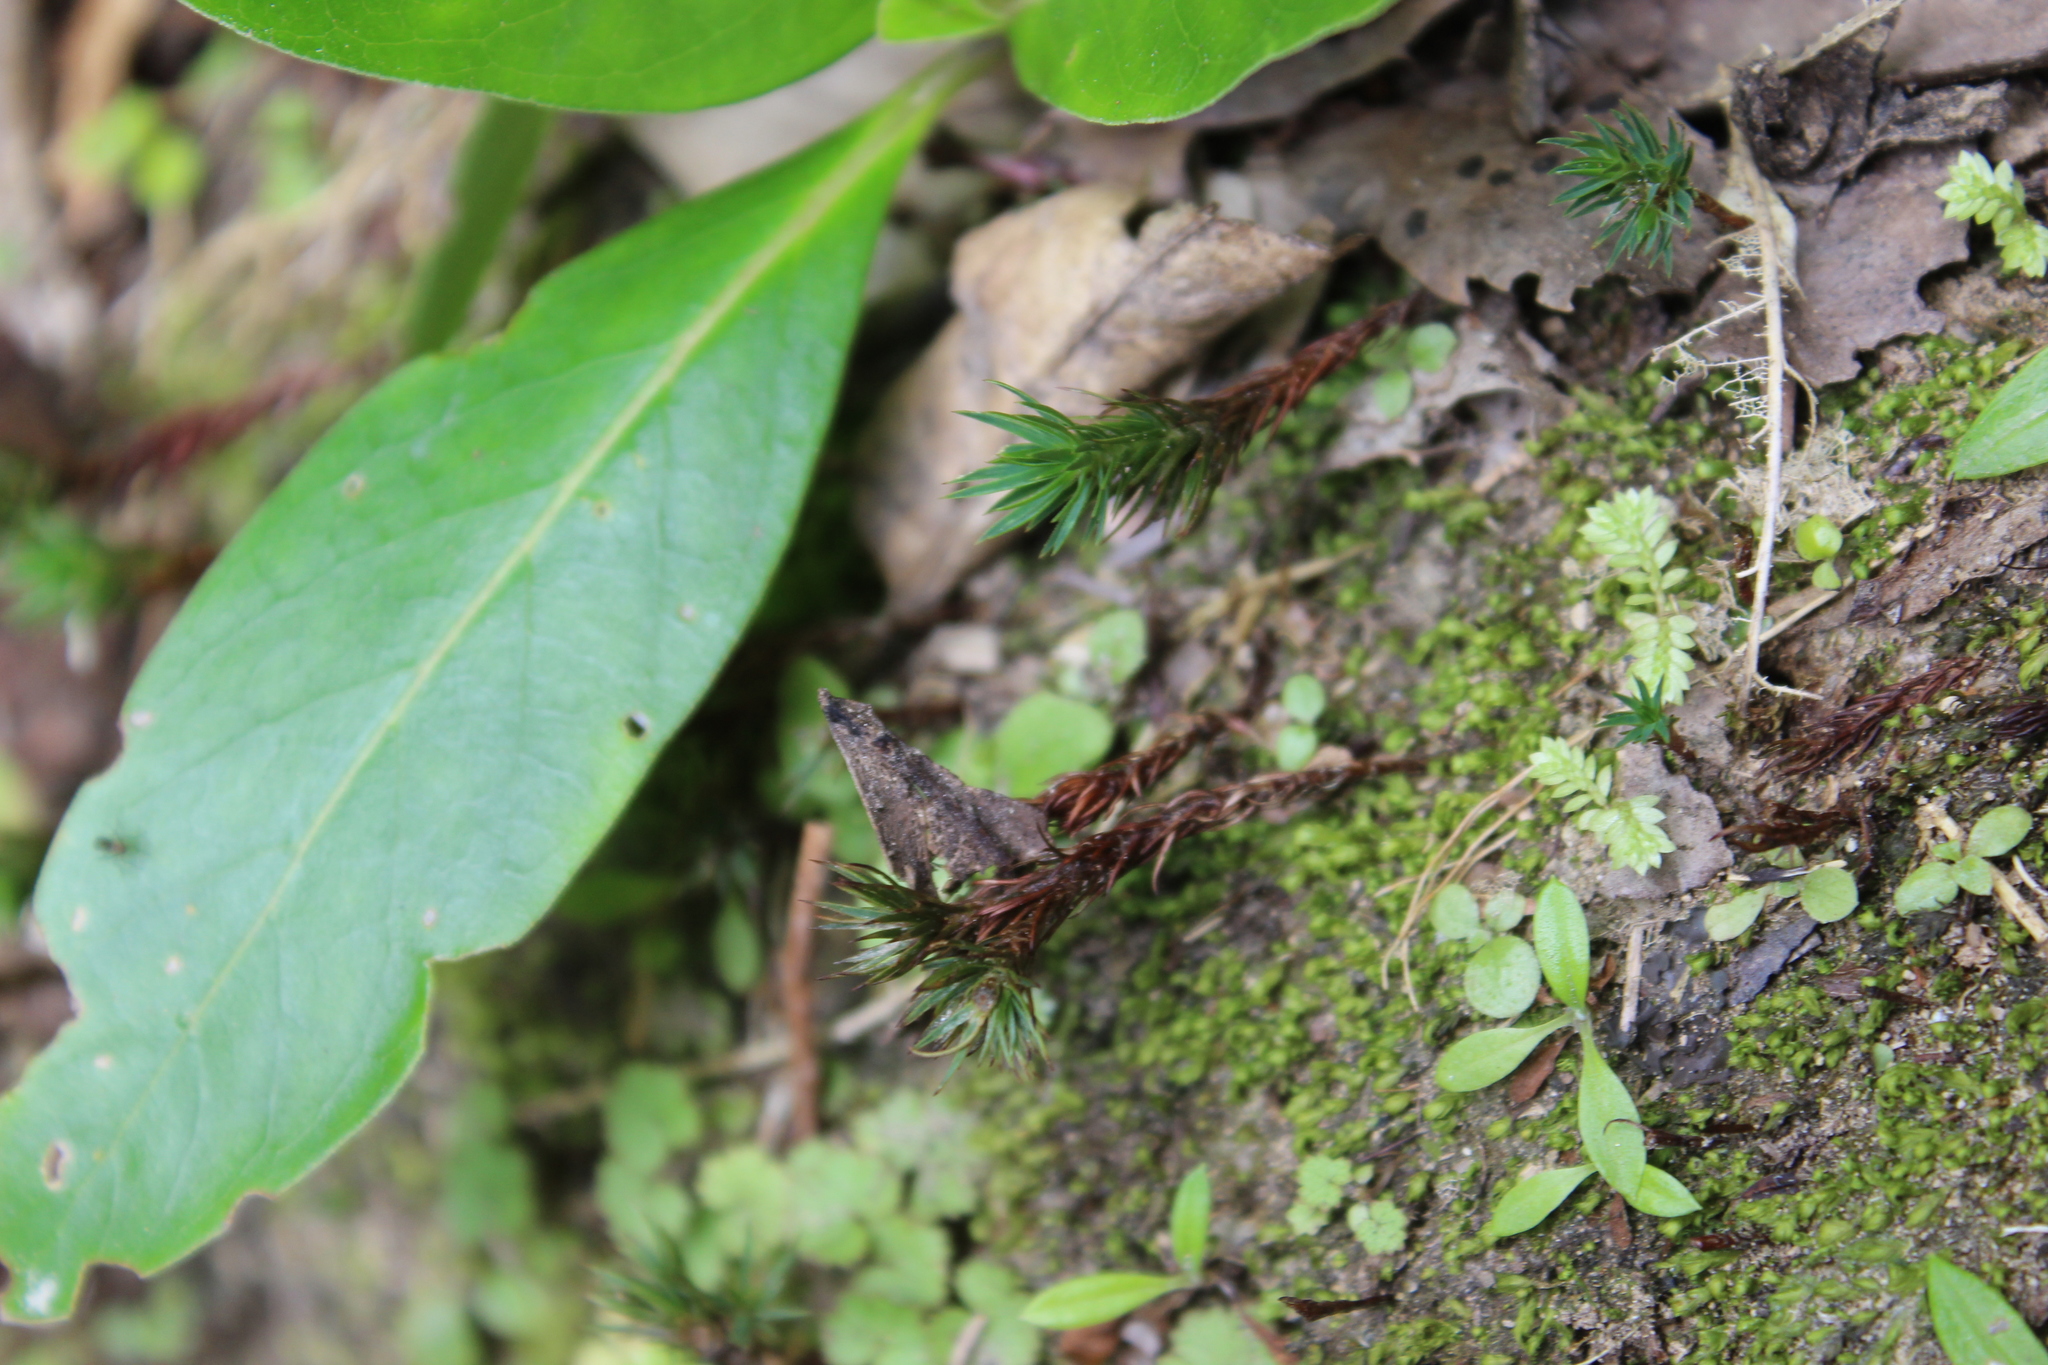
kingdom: Plantae
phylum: Bryophyta
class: Polytrichopsida
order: Polytrichales
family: Polytrichaceae
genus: Polytrichadelphus
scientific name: Polytrichadelphus magellanicus
